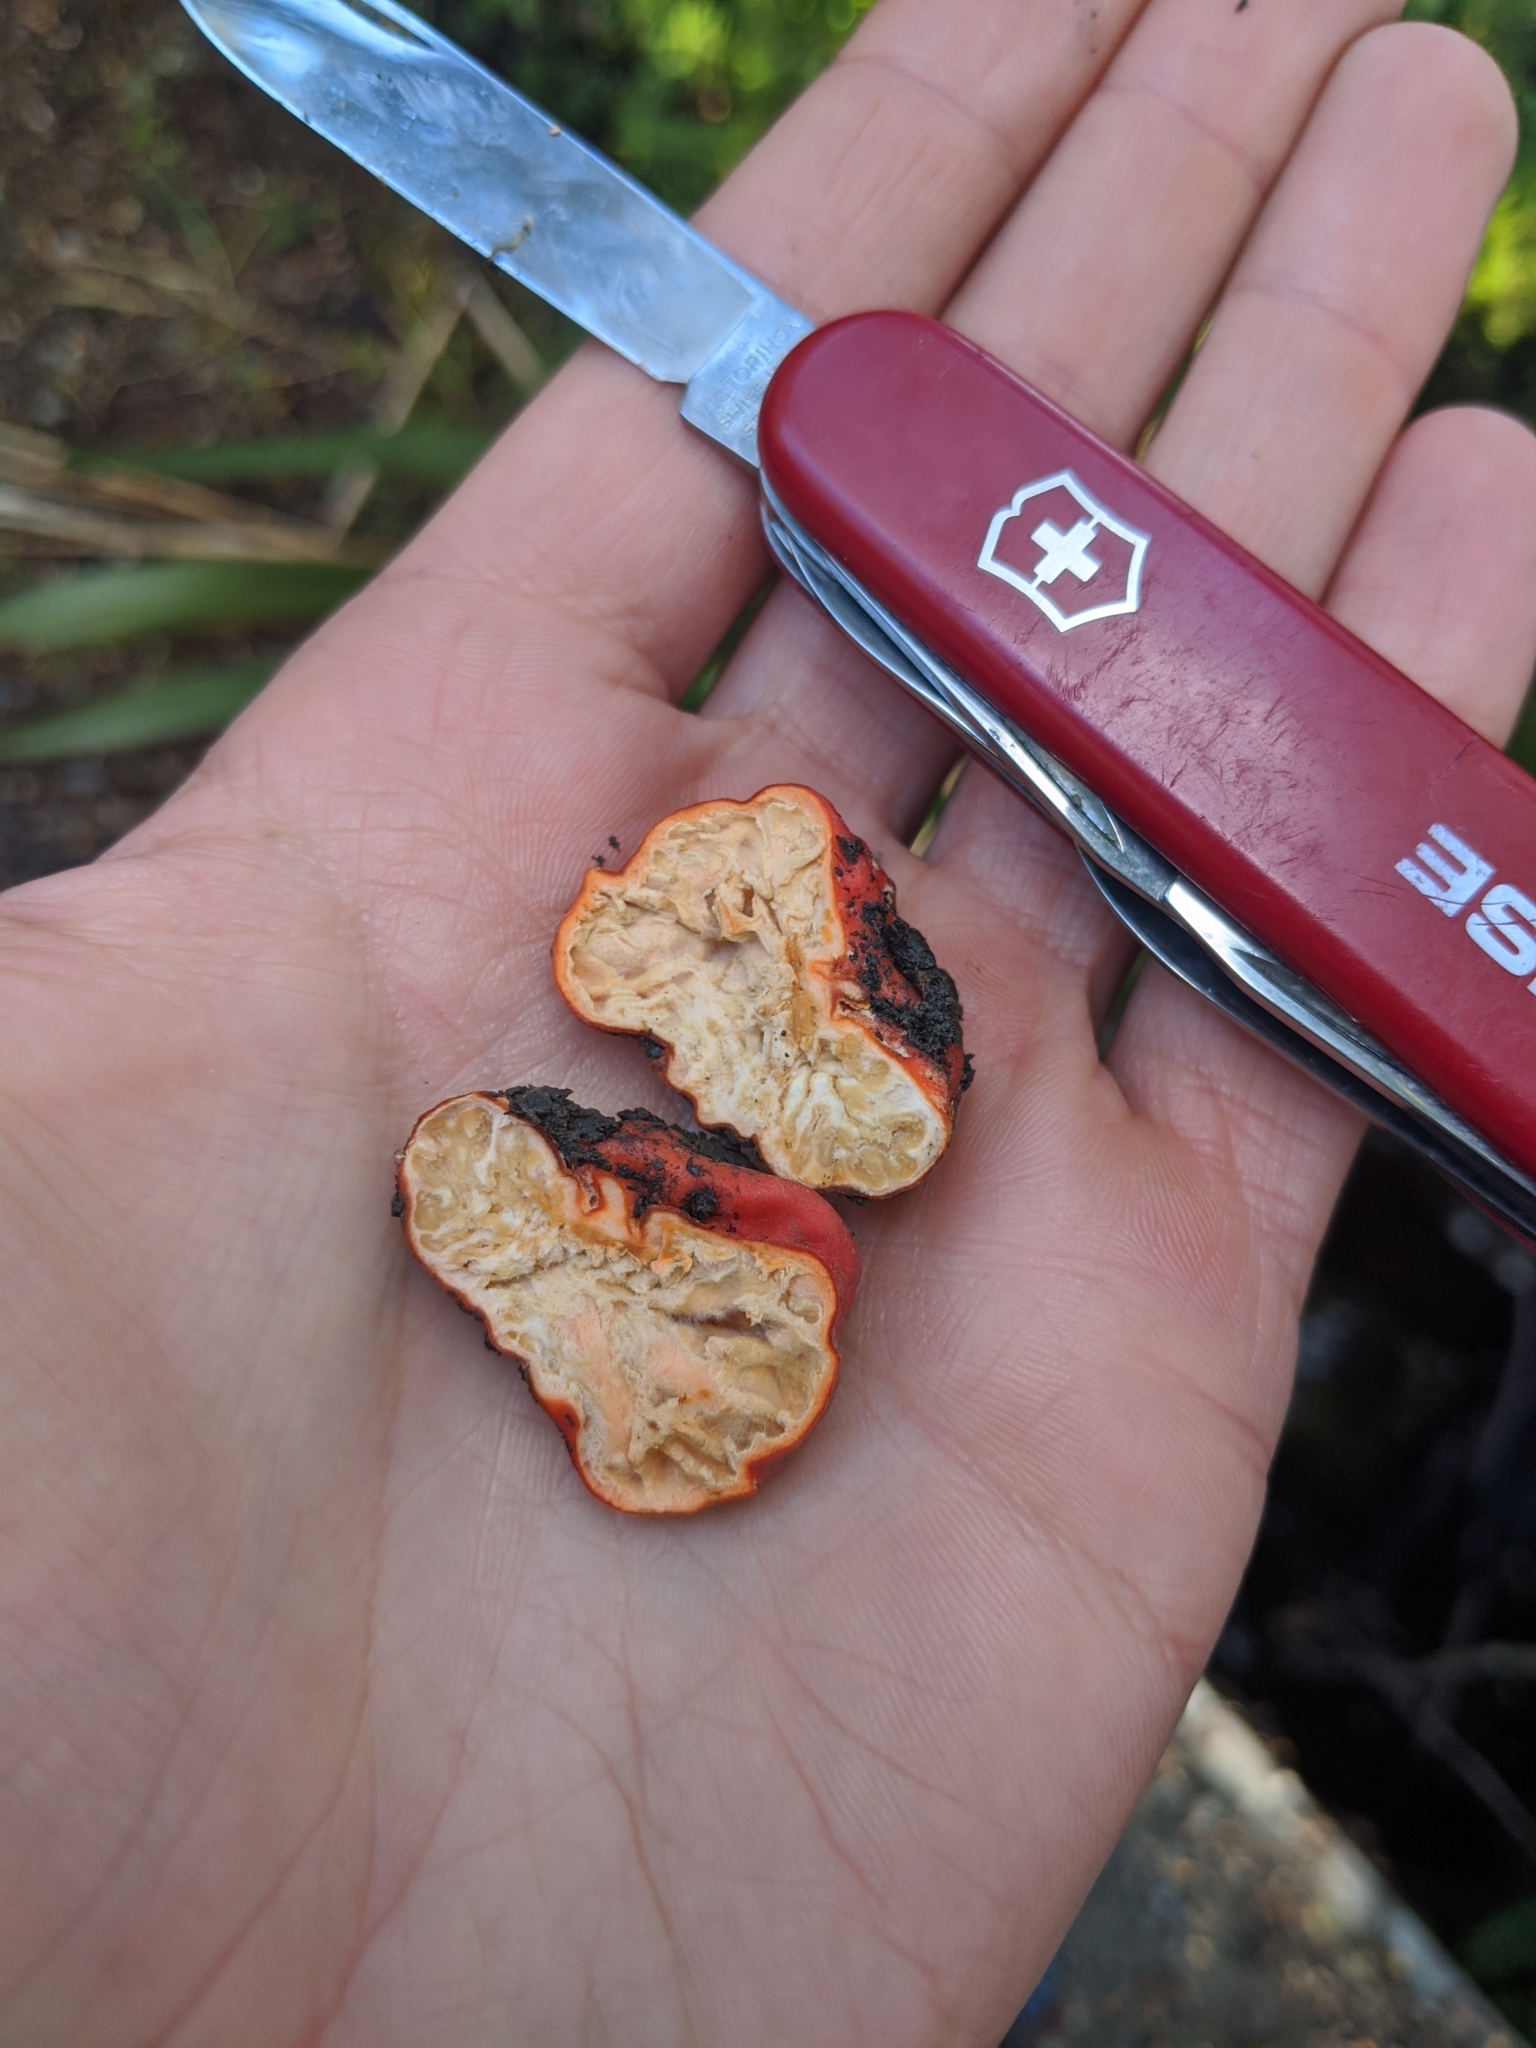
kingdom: Fungi
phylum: Ascomycota
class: Pezizomycetes
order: Pezizales
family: Pyronemataceae
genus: Paurocotylis
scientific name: Paurocotylis pila
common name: Scarlet berry truffle
